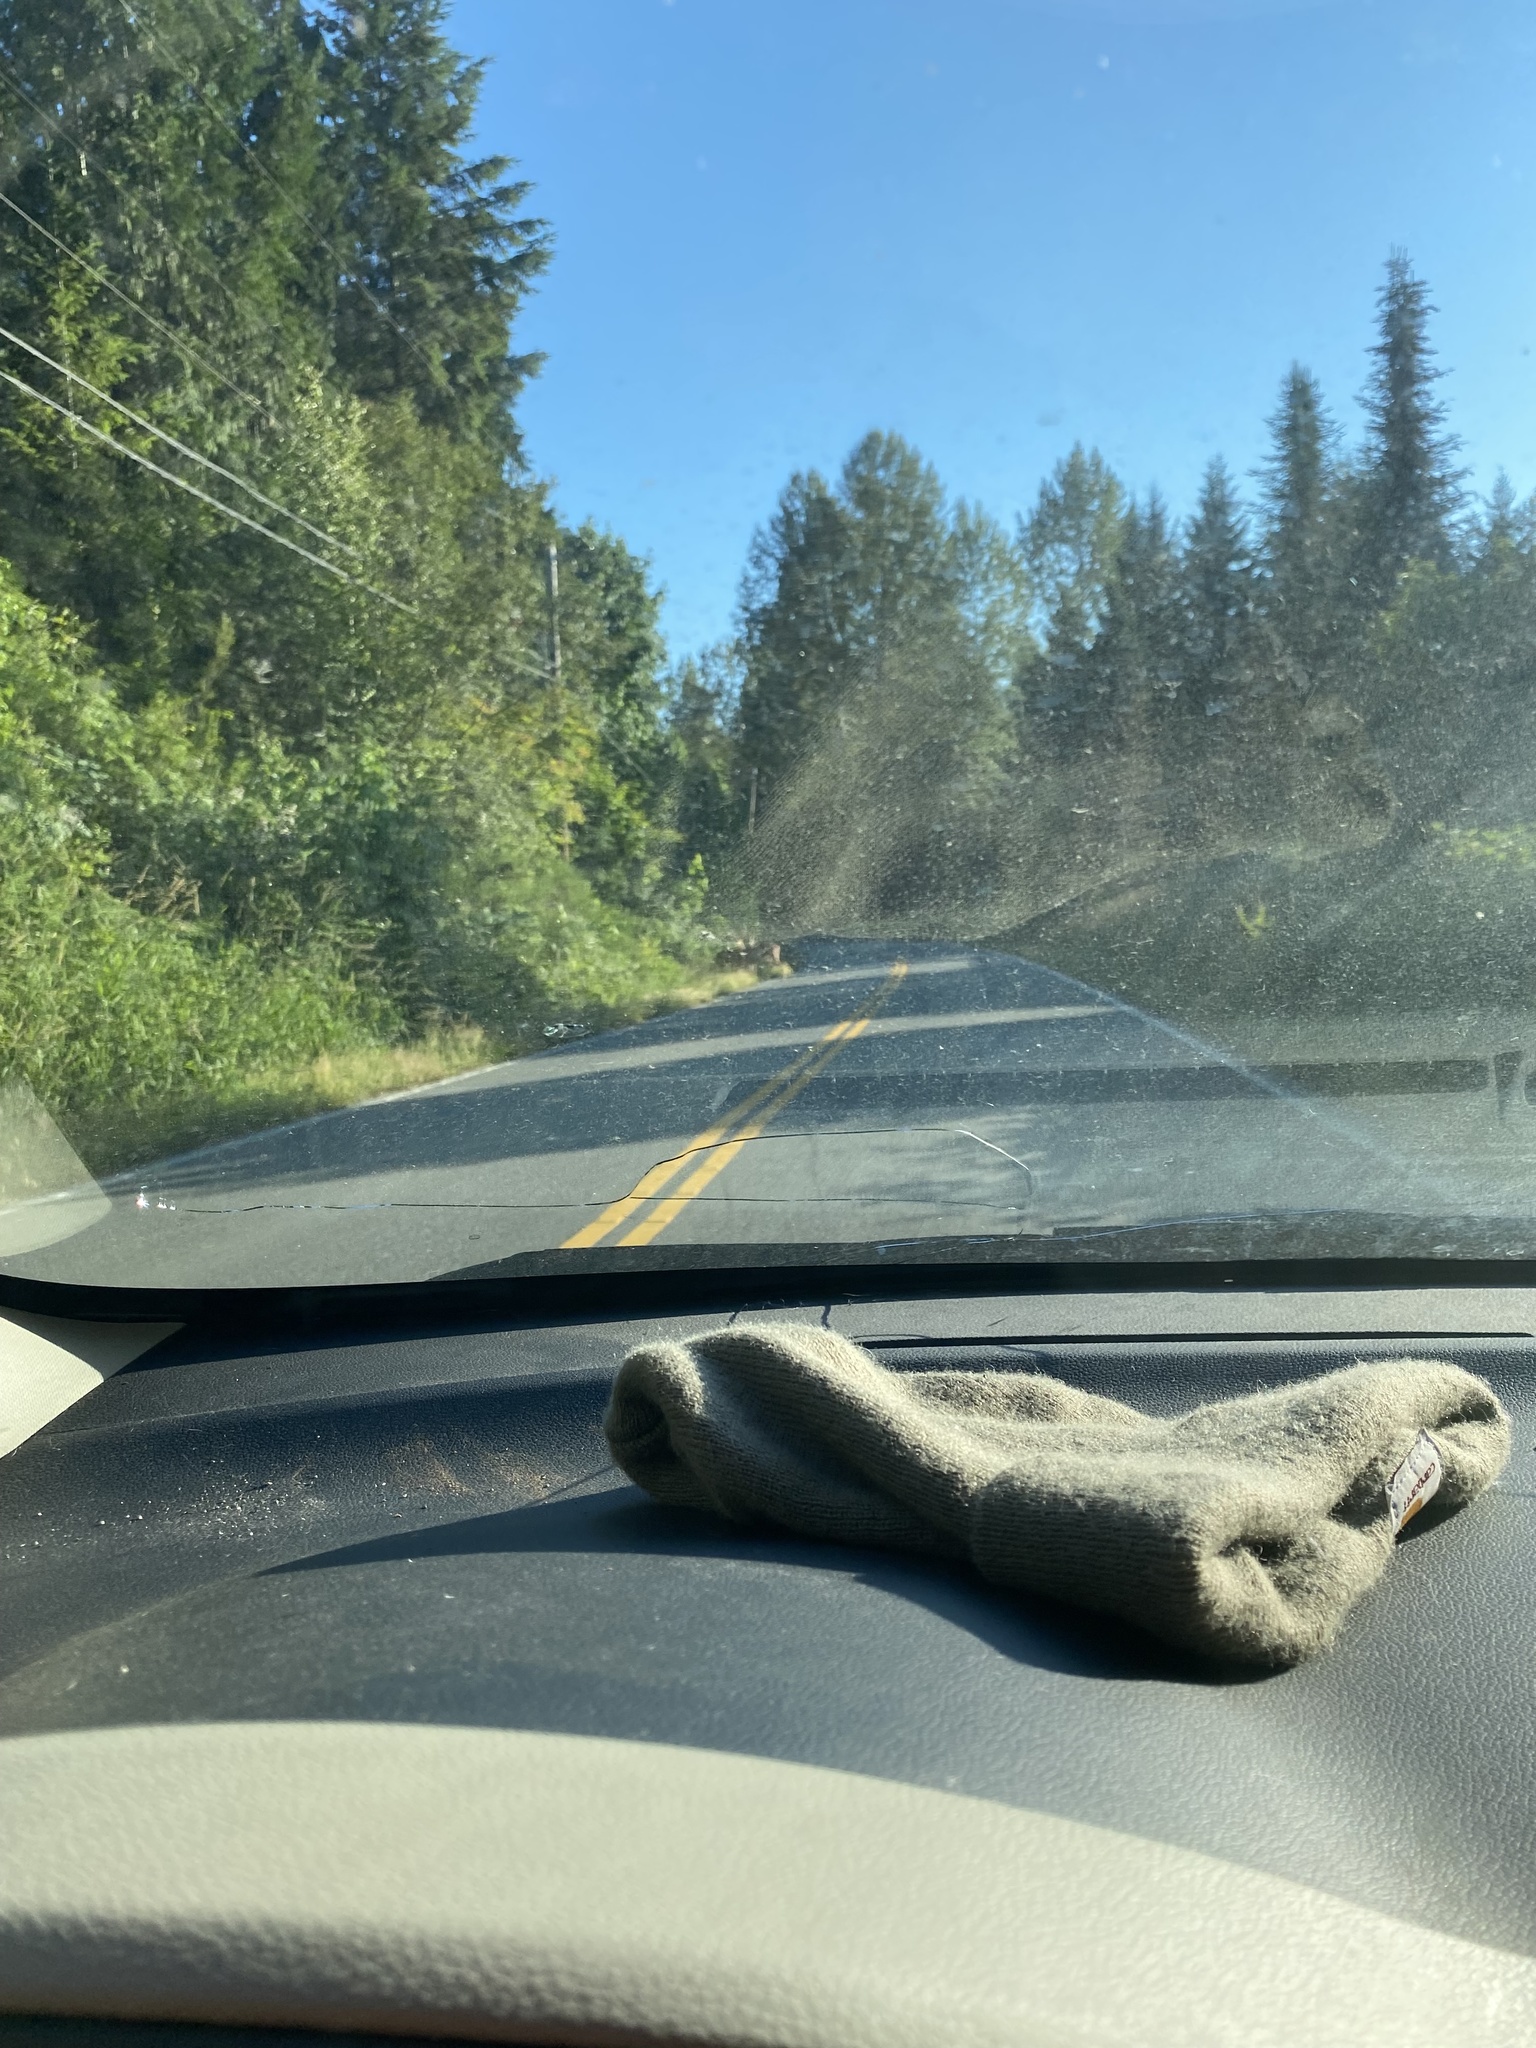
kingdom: Animalia
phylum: Chordata
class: Mammalia
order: Artiodactyla
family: Cervidae
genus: Odocoileus
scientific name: Odocoileus hemionus
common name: Mule deer
